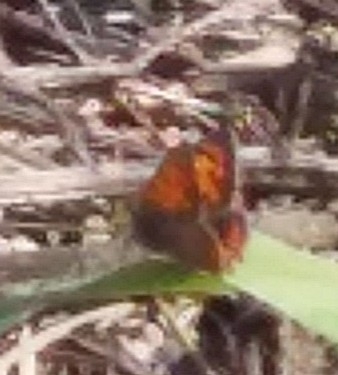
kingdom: Animalia
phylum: Arthropoda
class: Insecta
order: Lepidoptera
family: Lycaenidae
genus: Lycaena
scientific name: Lycaena phlaeas
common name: Small copper
